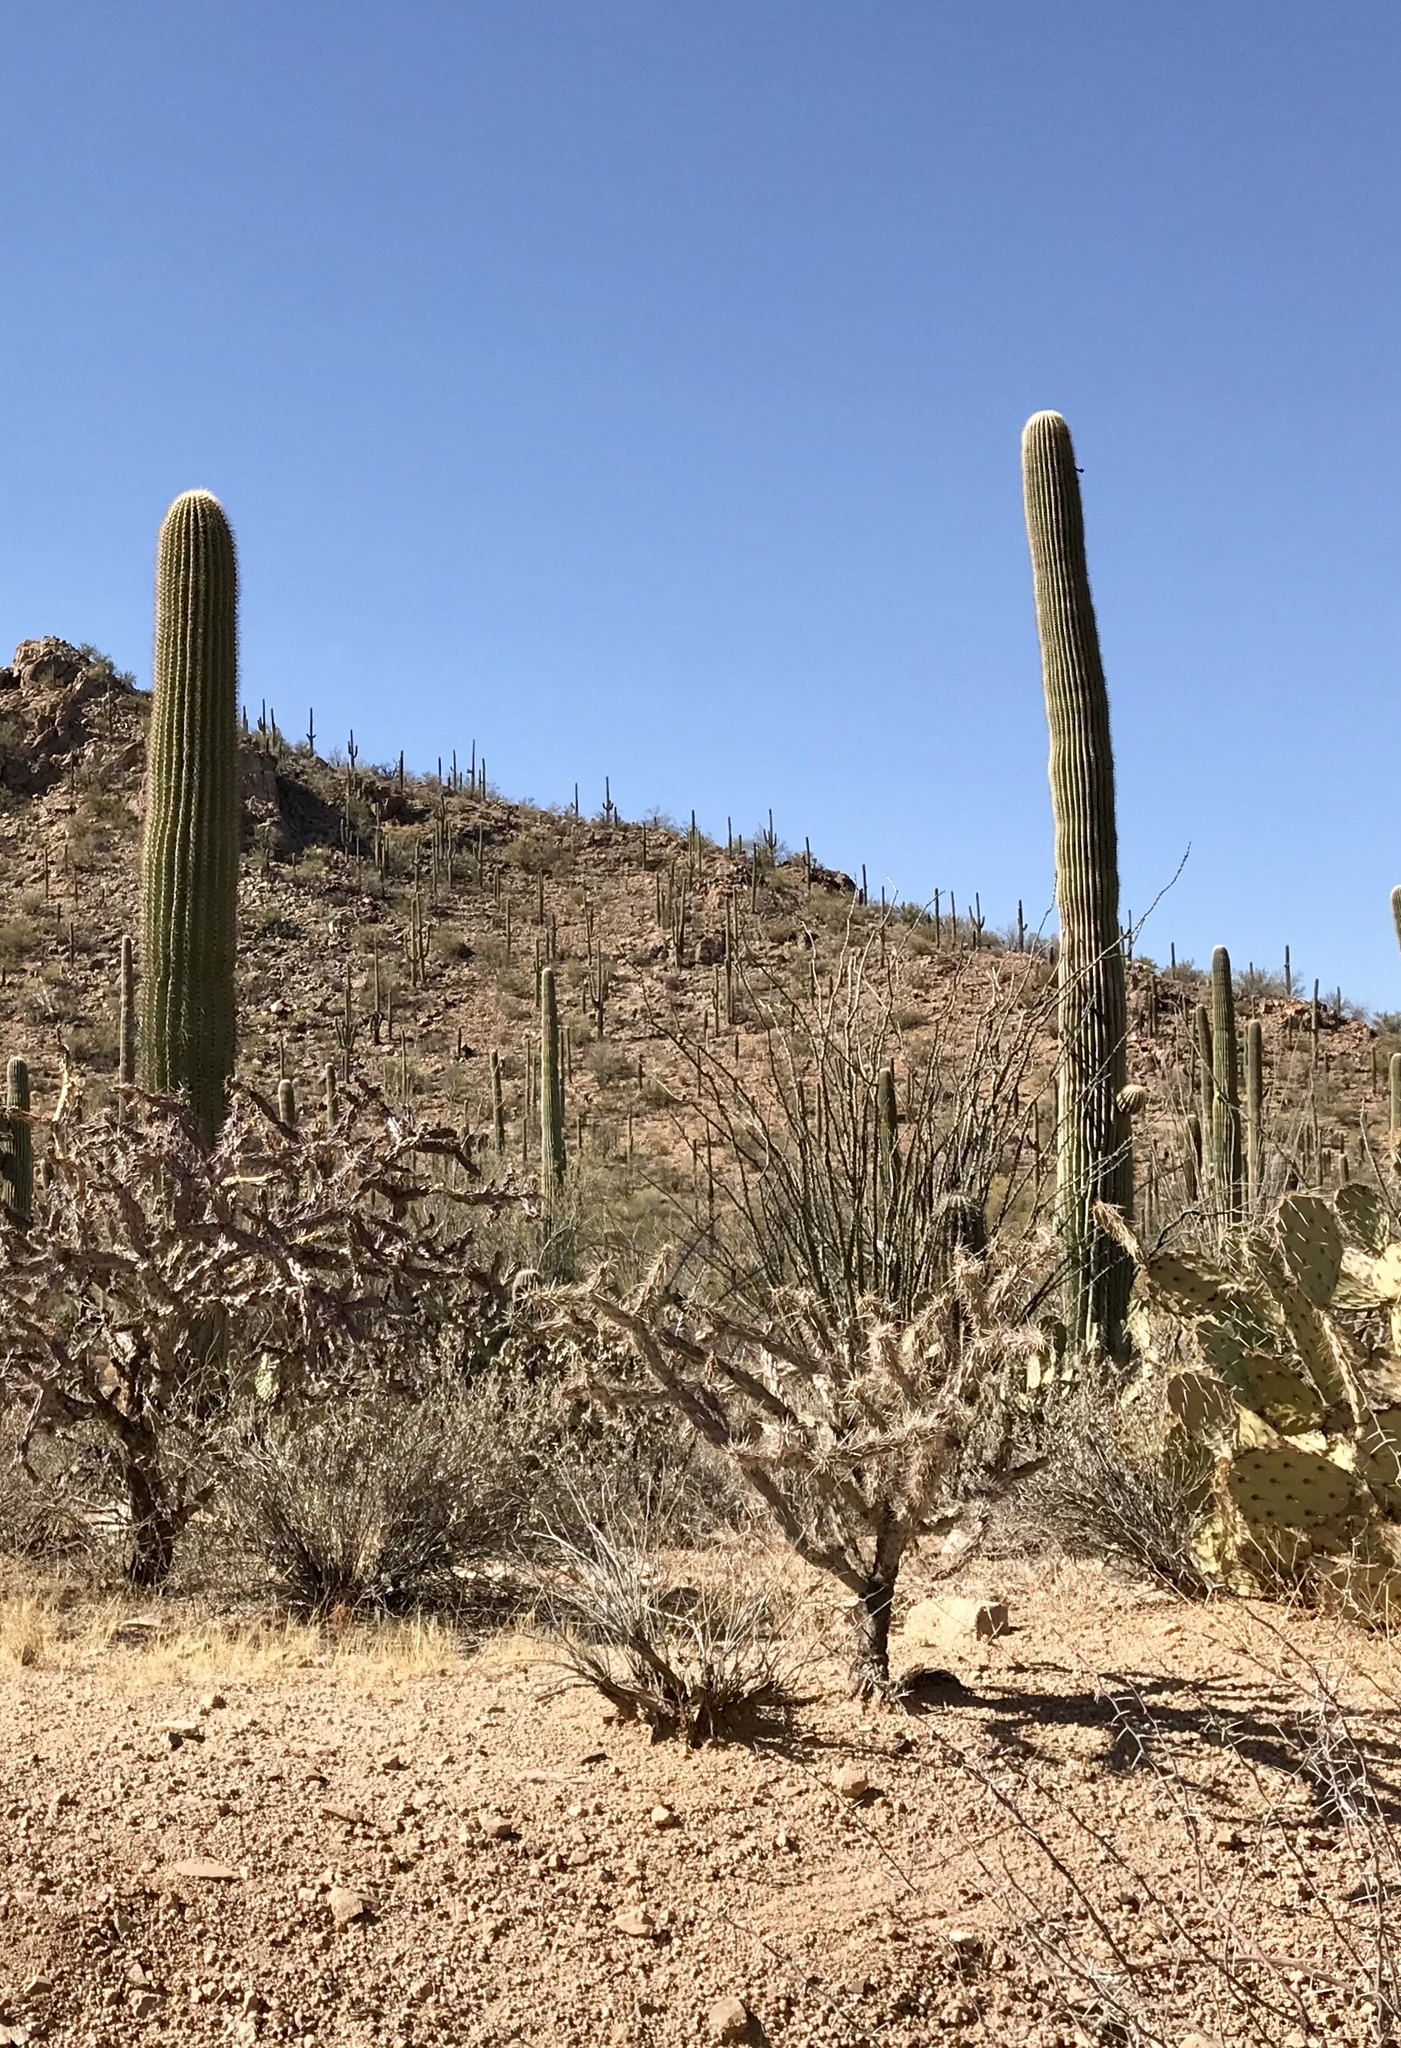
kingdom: Plantae
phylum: Tracheophyta
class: Magnoliopsida
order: Caryophyllales
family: Cactaceae
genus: Carnegiea
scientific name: Carnegiea gigantea
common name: Saguaro
